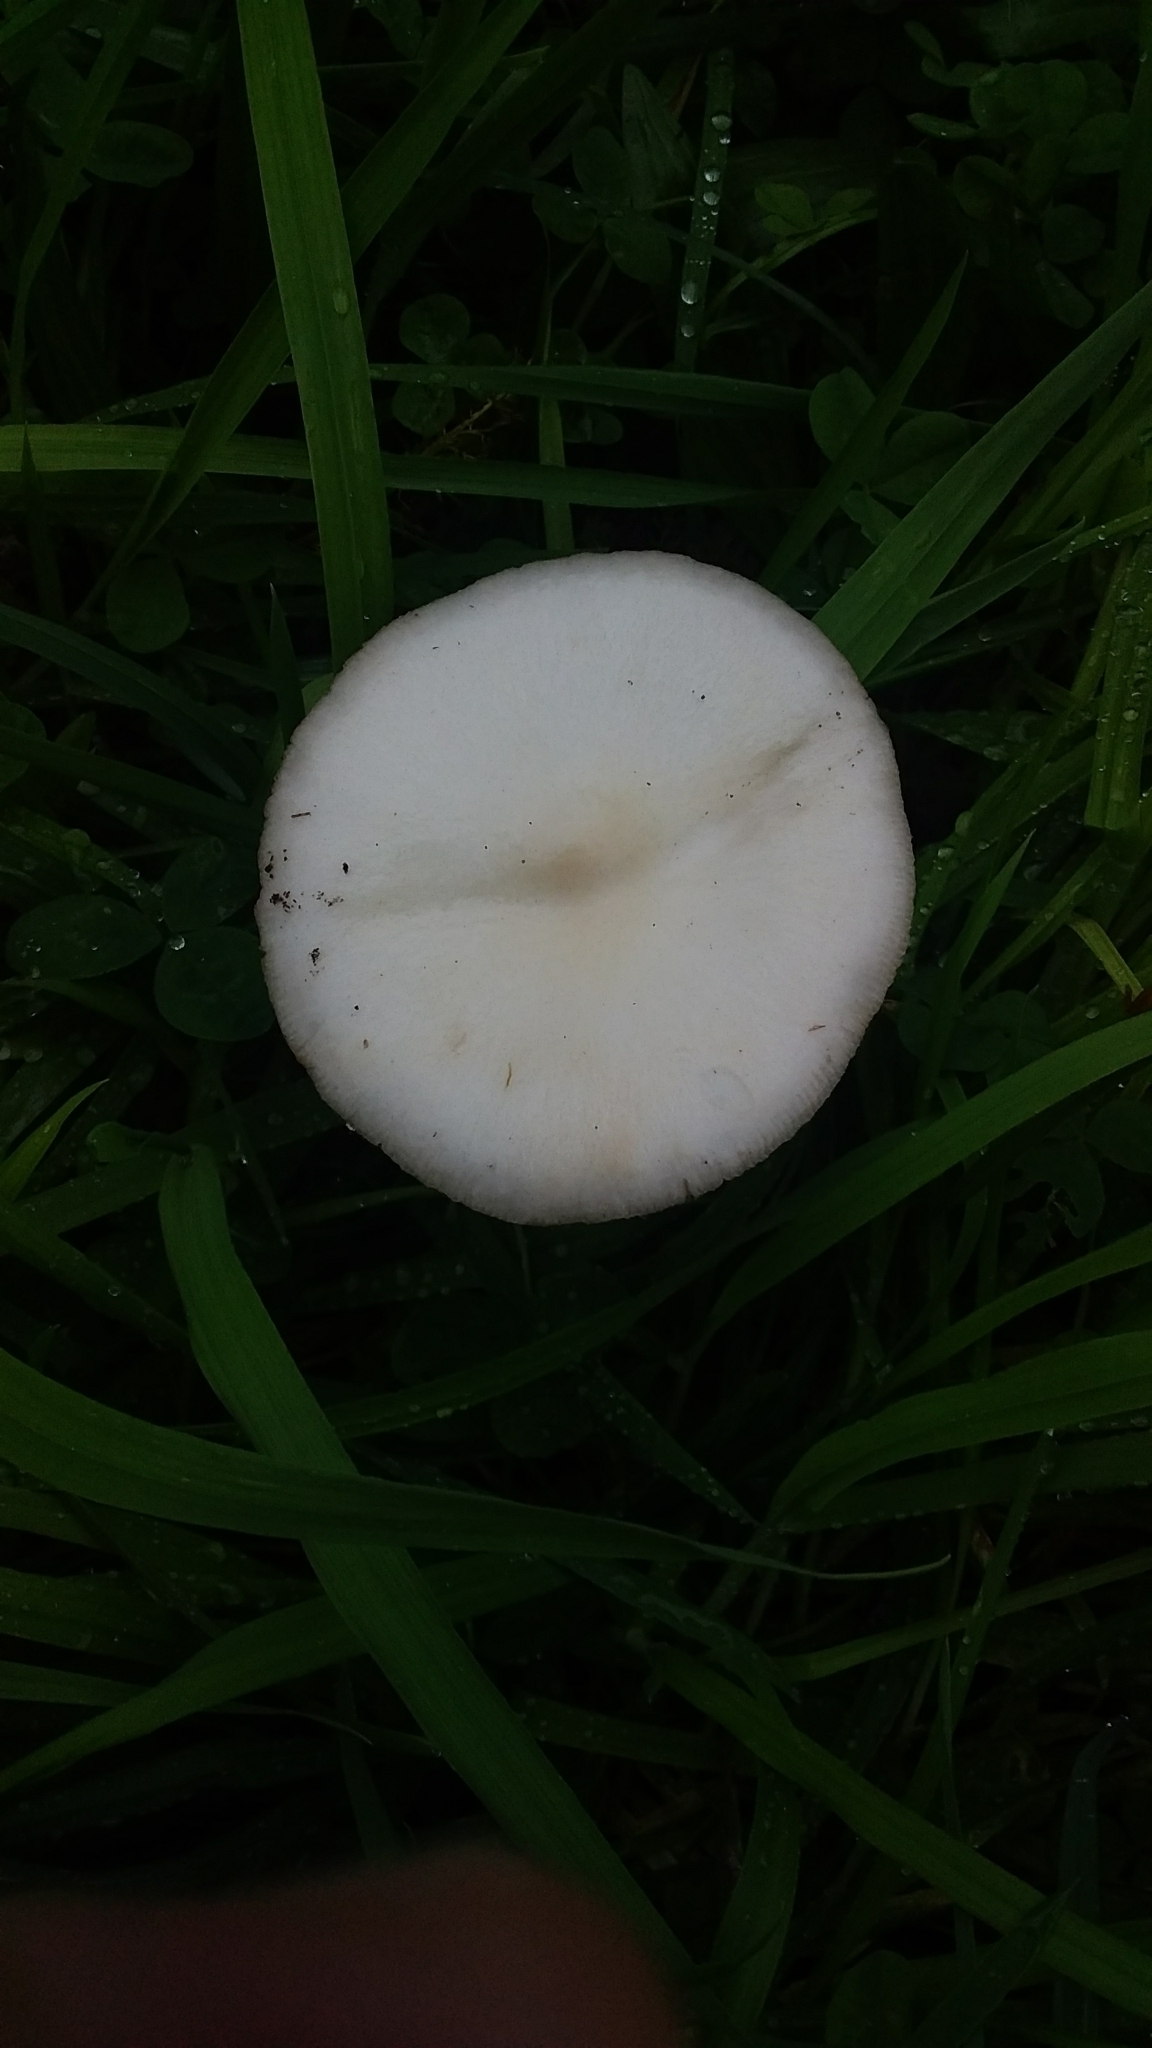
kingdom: Fungi
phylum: Basidiomycota
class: Agaricomycetes
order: Agaricales
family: Pluteaceae
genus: Volvopluteus
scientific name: Volvopluteus gloiocephalus
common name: Stubble rosegill
